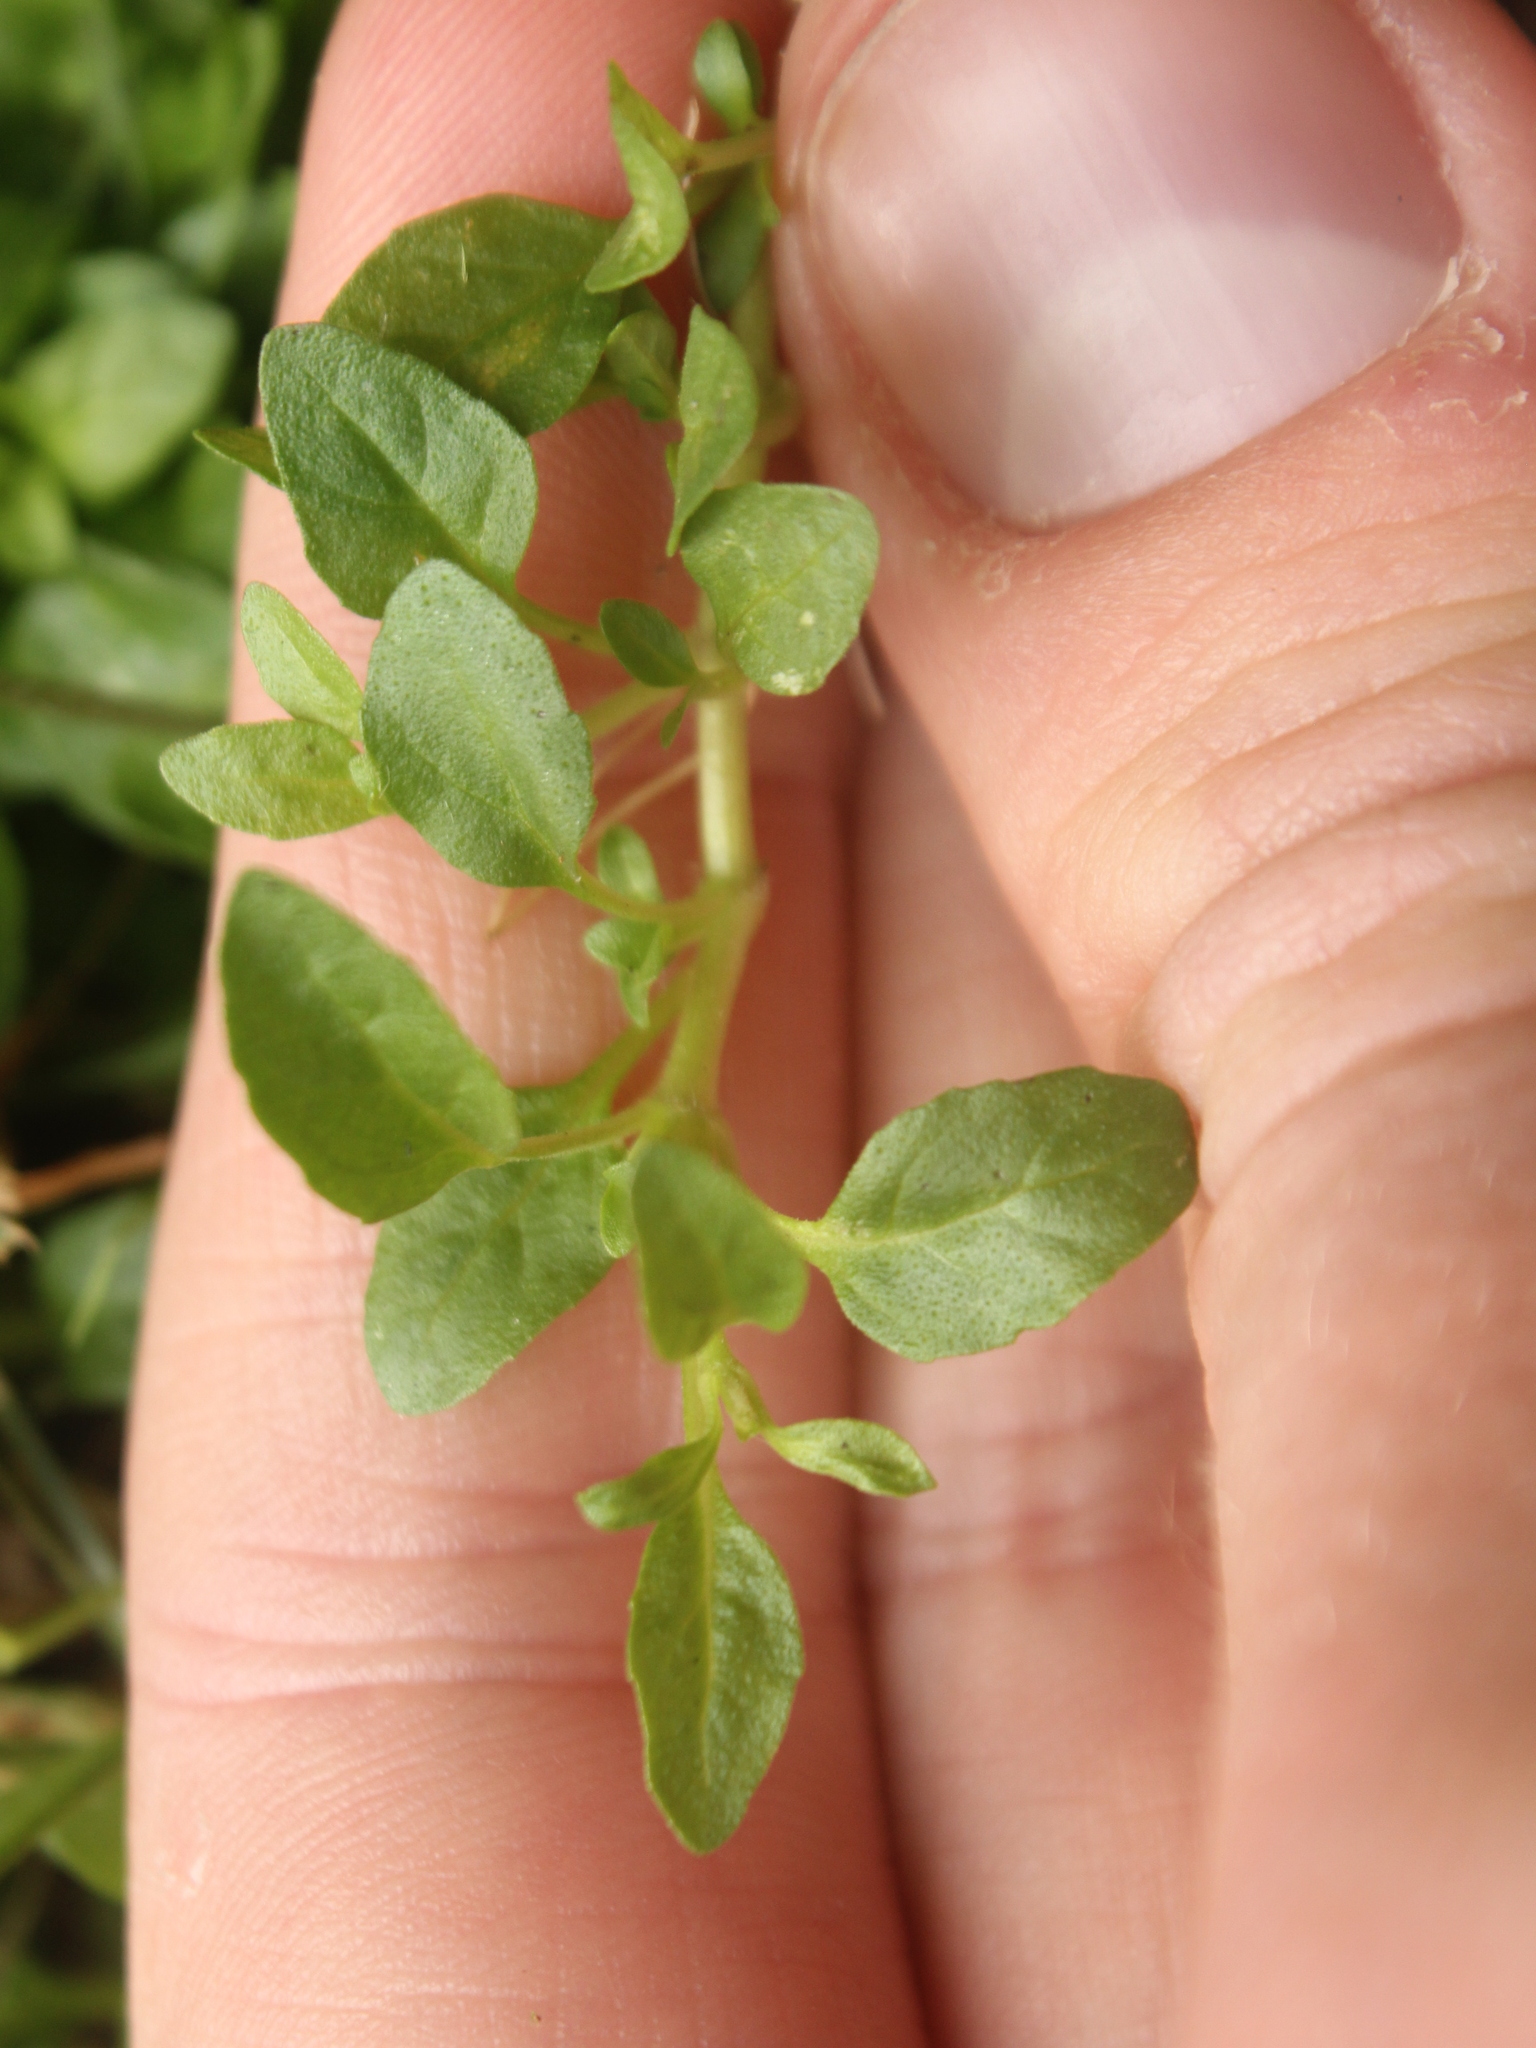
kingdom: Plantae
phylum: Tracheophyta
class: Magnoliopsida
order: Lamiales
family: Lamiaceae
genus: Mentha
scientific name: Mentha pulegium
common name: Pennyroyal
